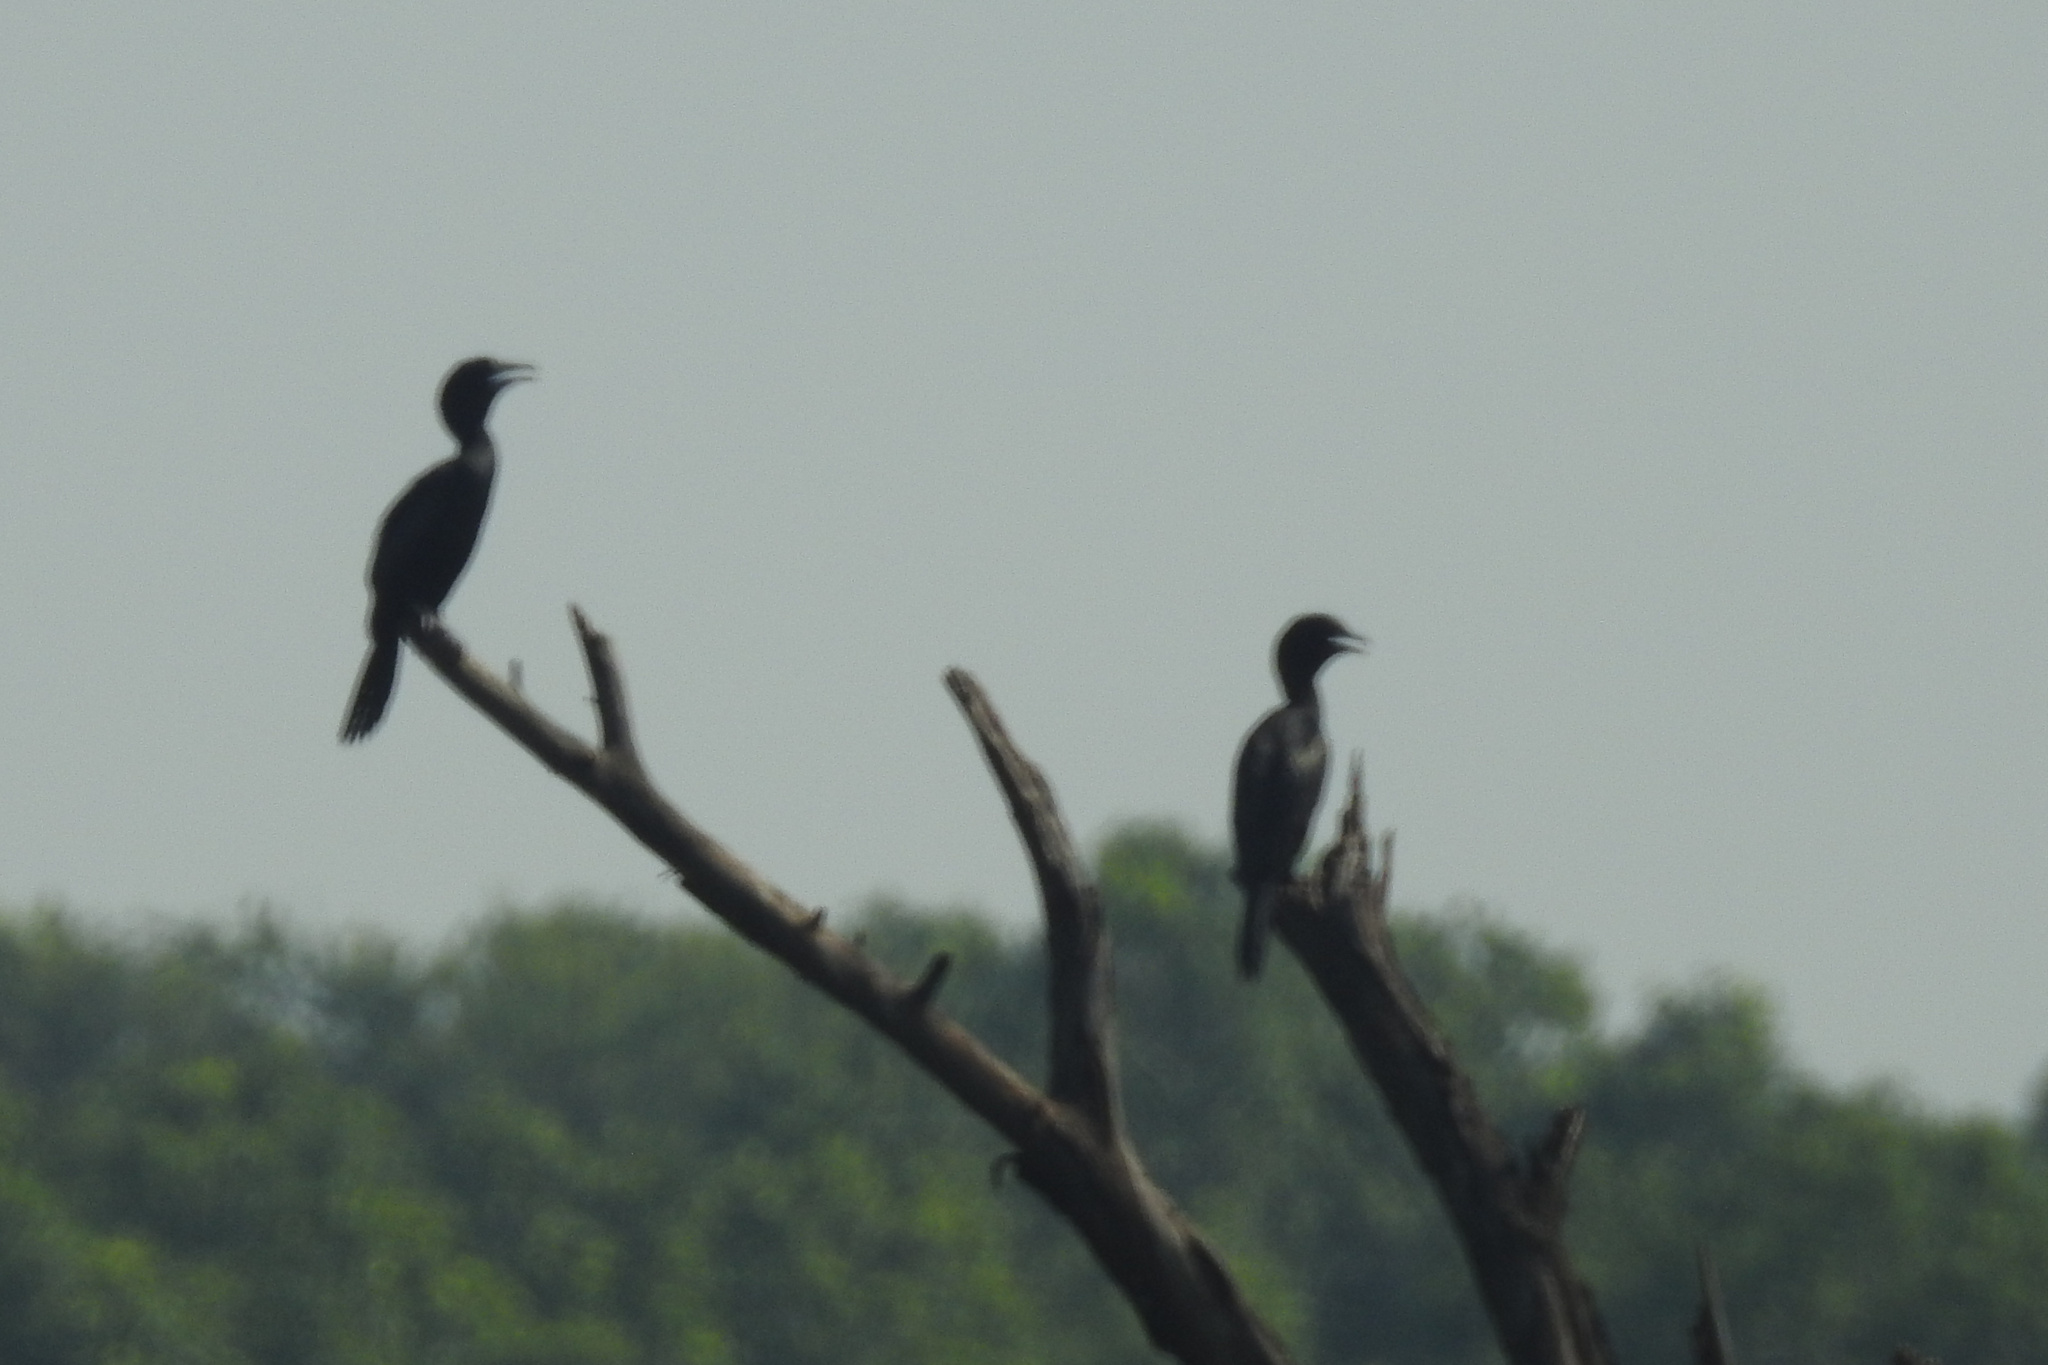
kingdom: Animalia
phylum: Chordata
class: Aves
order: Suliformes
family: Phalacrocoracidae
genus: Microcarbo
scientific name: Microcarbo niger
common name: Little cormorant
